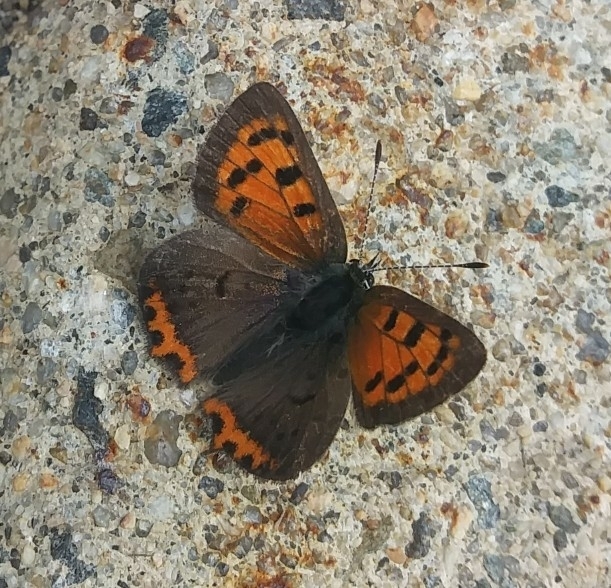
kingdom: Animalia
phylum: Arthropoda
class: Insecta
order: Lepidoptera
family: Lycaenidae
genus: Lycaena
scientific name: Lycaena hypophlaeas
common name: American copper
